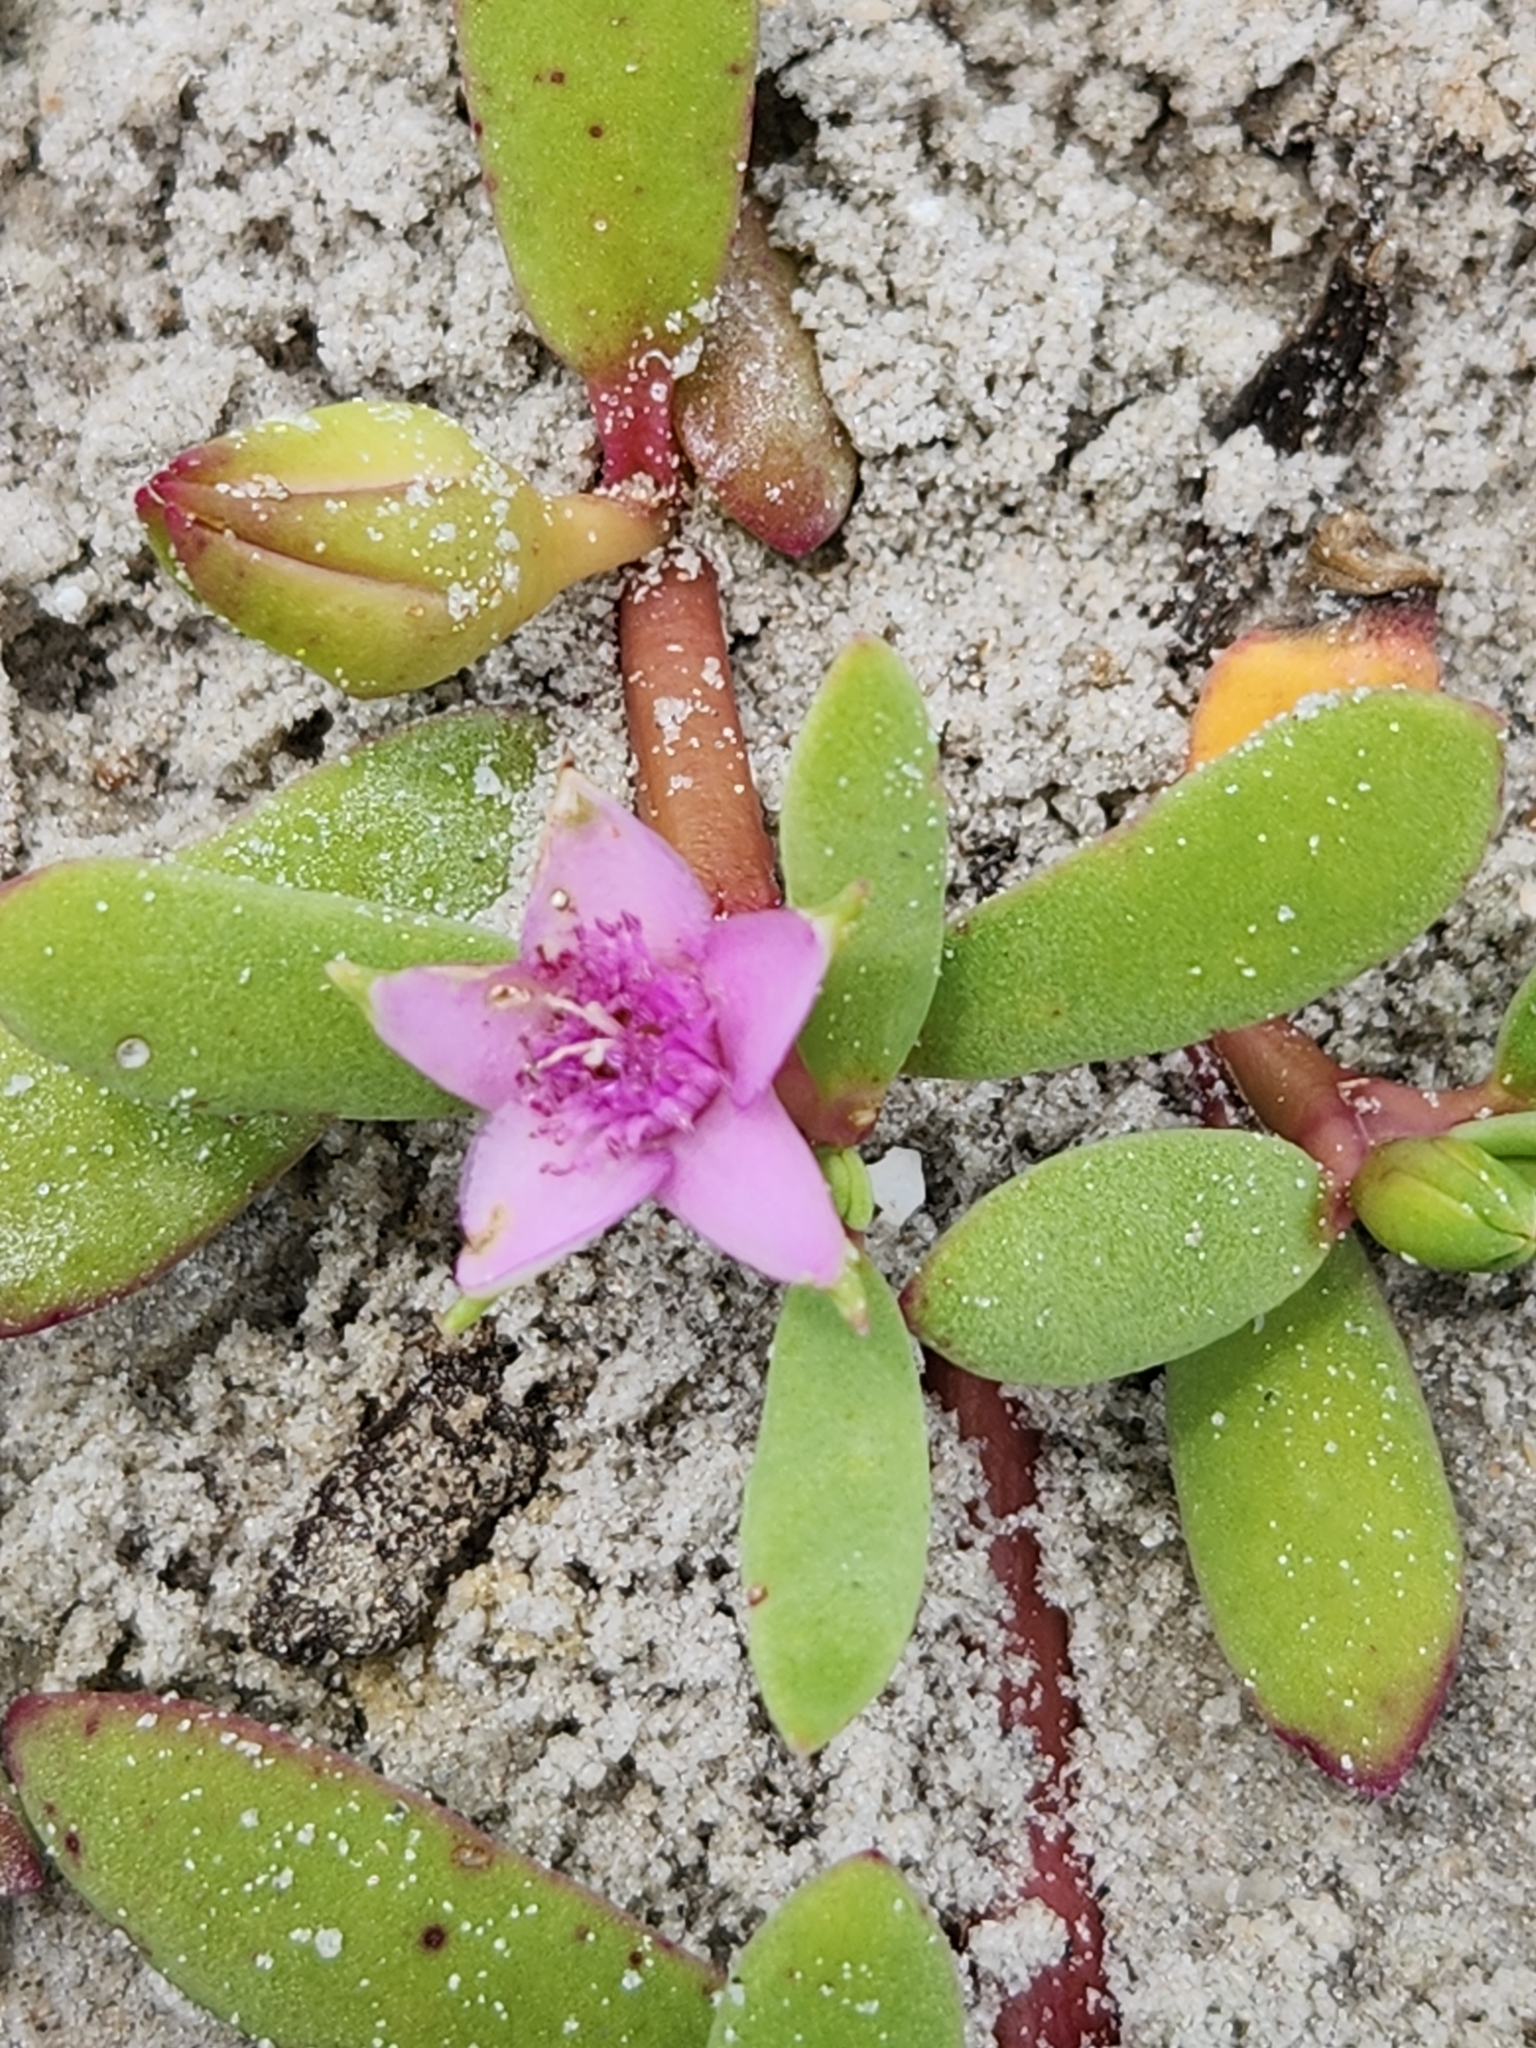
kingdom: Plantae
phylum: Tracheophyta
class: Magnoliopsida
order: Caryophyllales
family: Aizoaceae
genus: Sesuvium
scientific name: Sesuvium portulacastrum
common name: Sea-purslane
